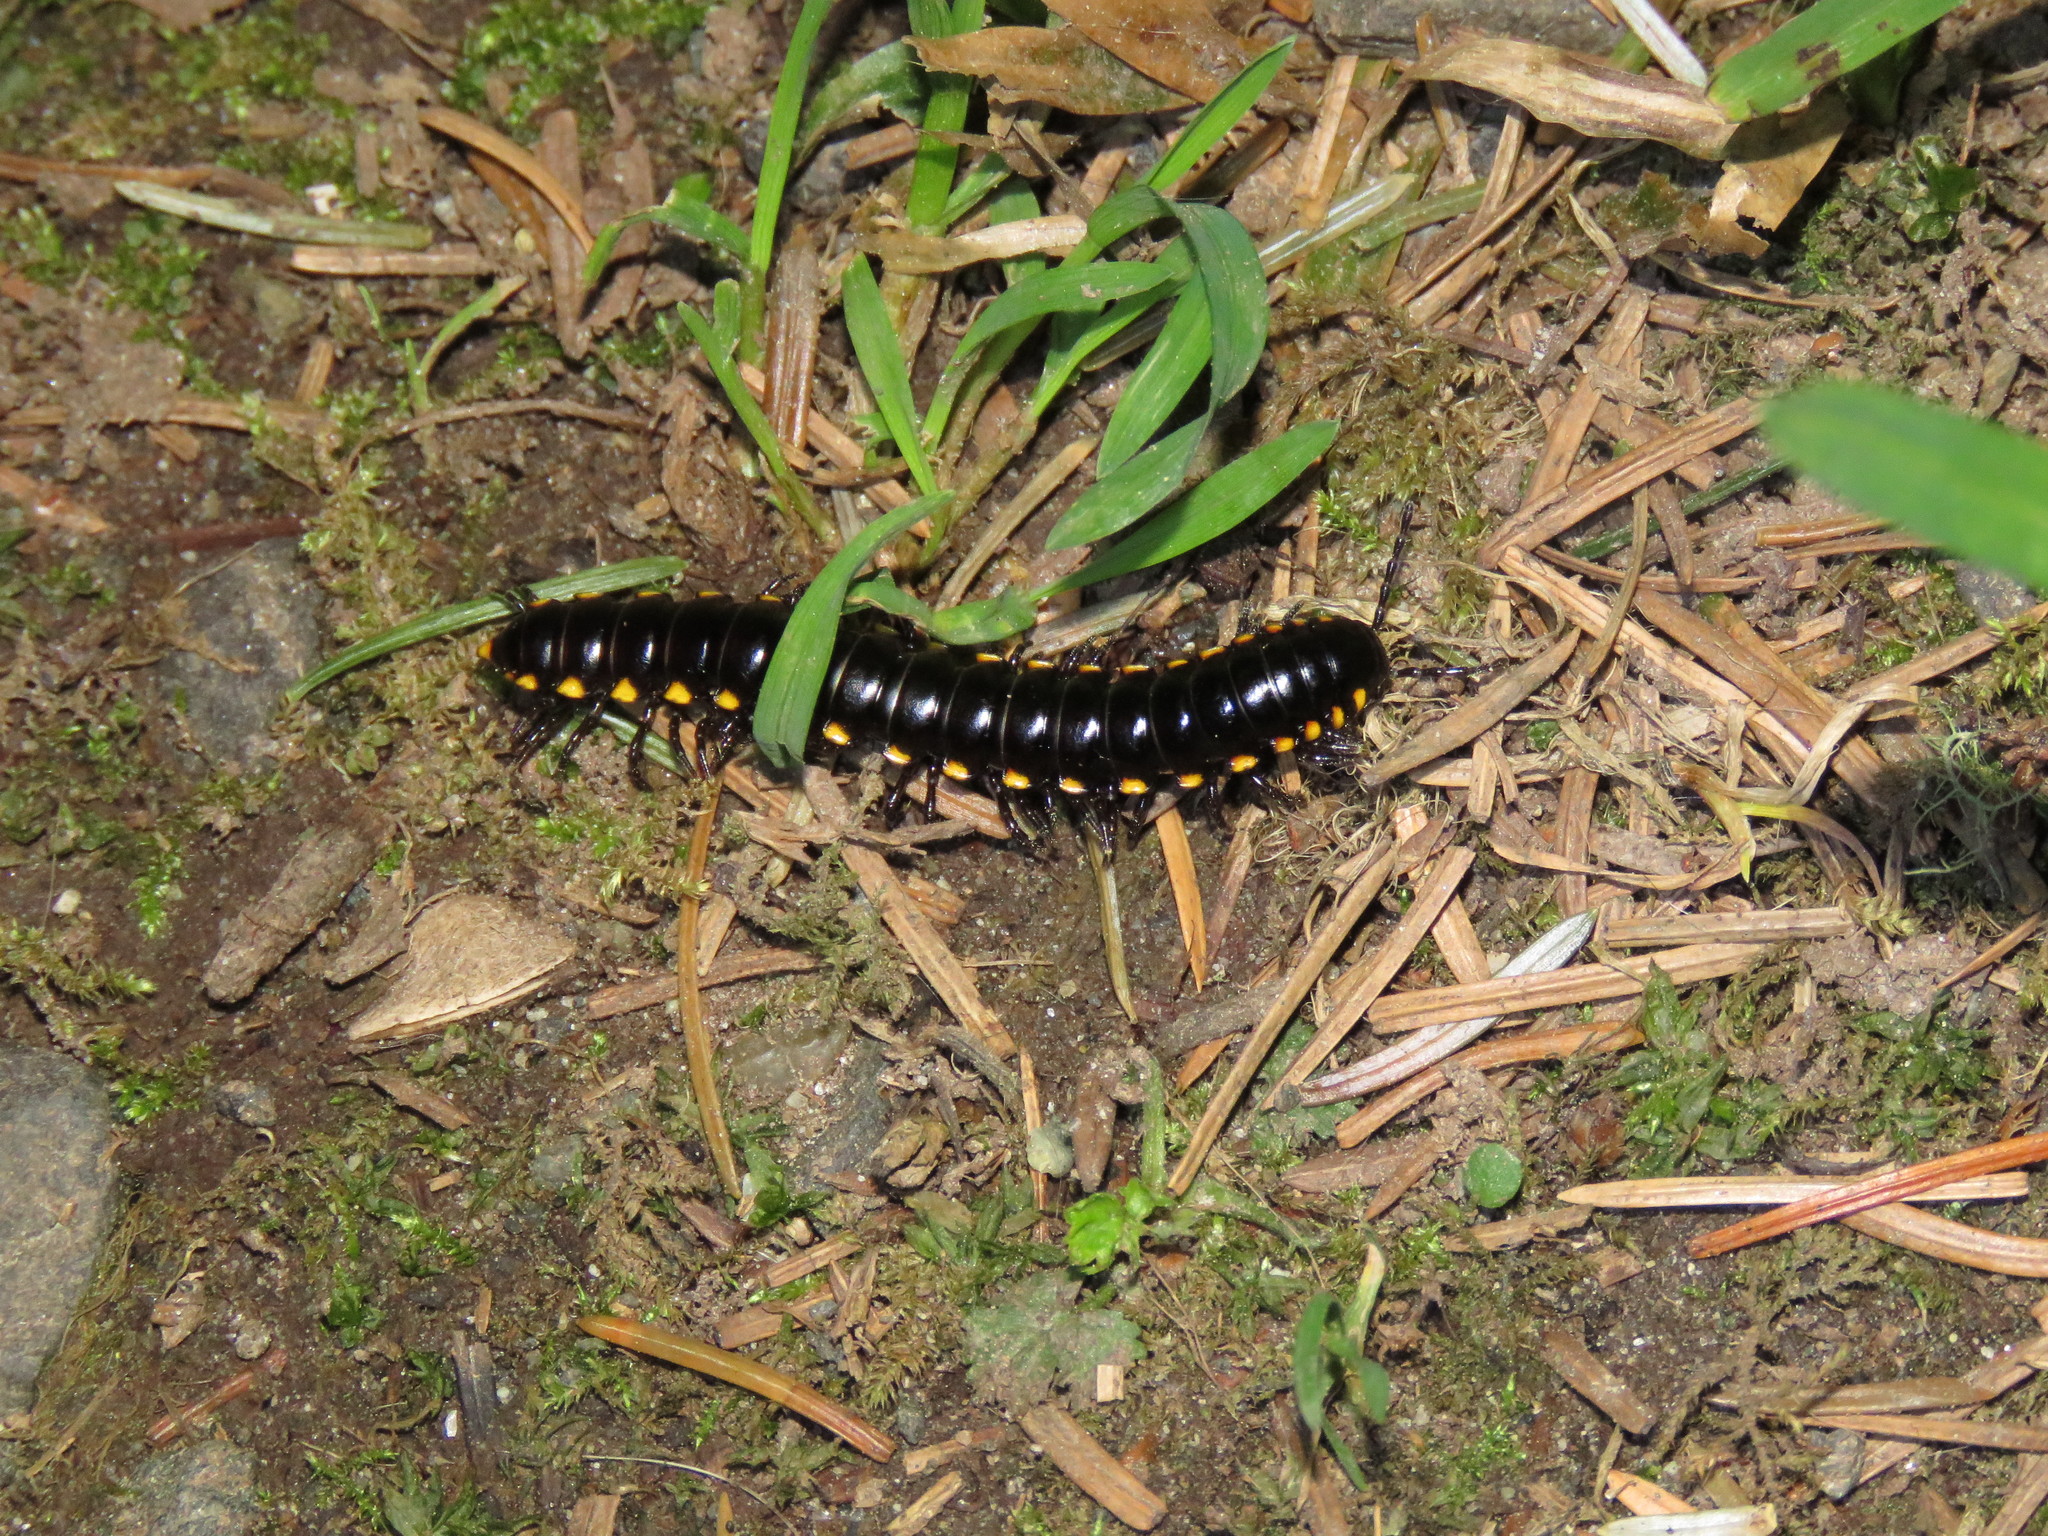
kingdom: Animalia
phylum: Arthropoda
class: Diplopoda
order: Polydesmida
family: Xystodesmidae
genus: Harpaphe
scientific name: Harpaphe haydeniana
